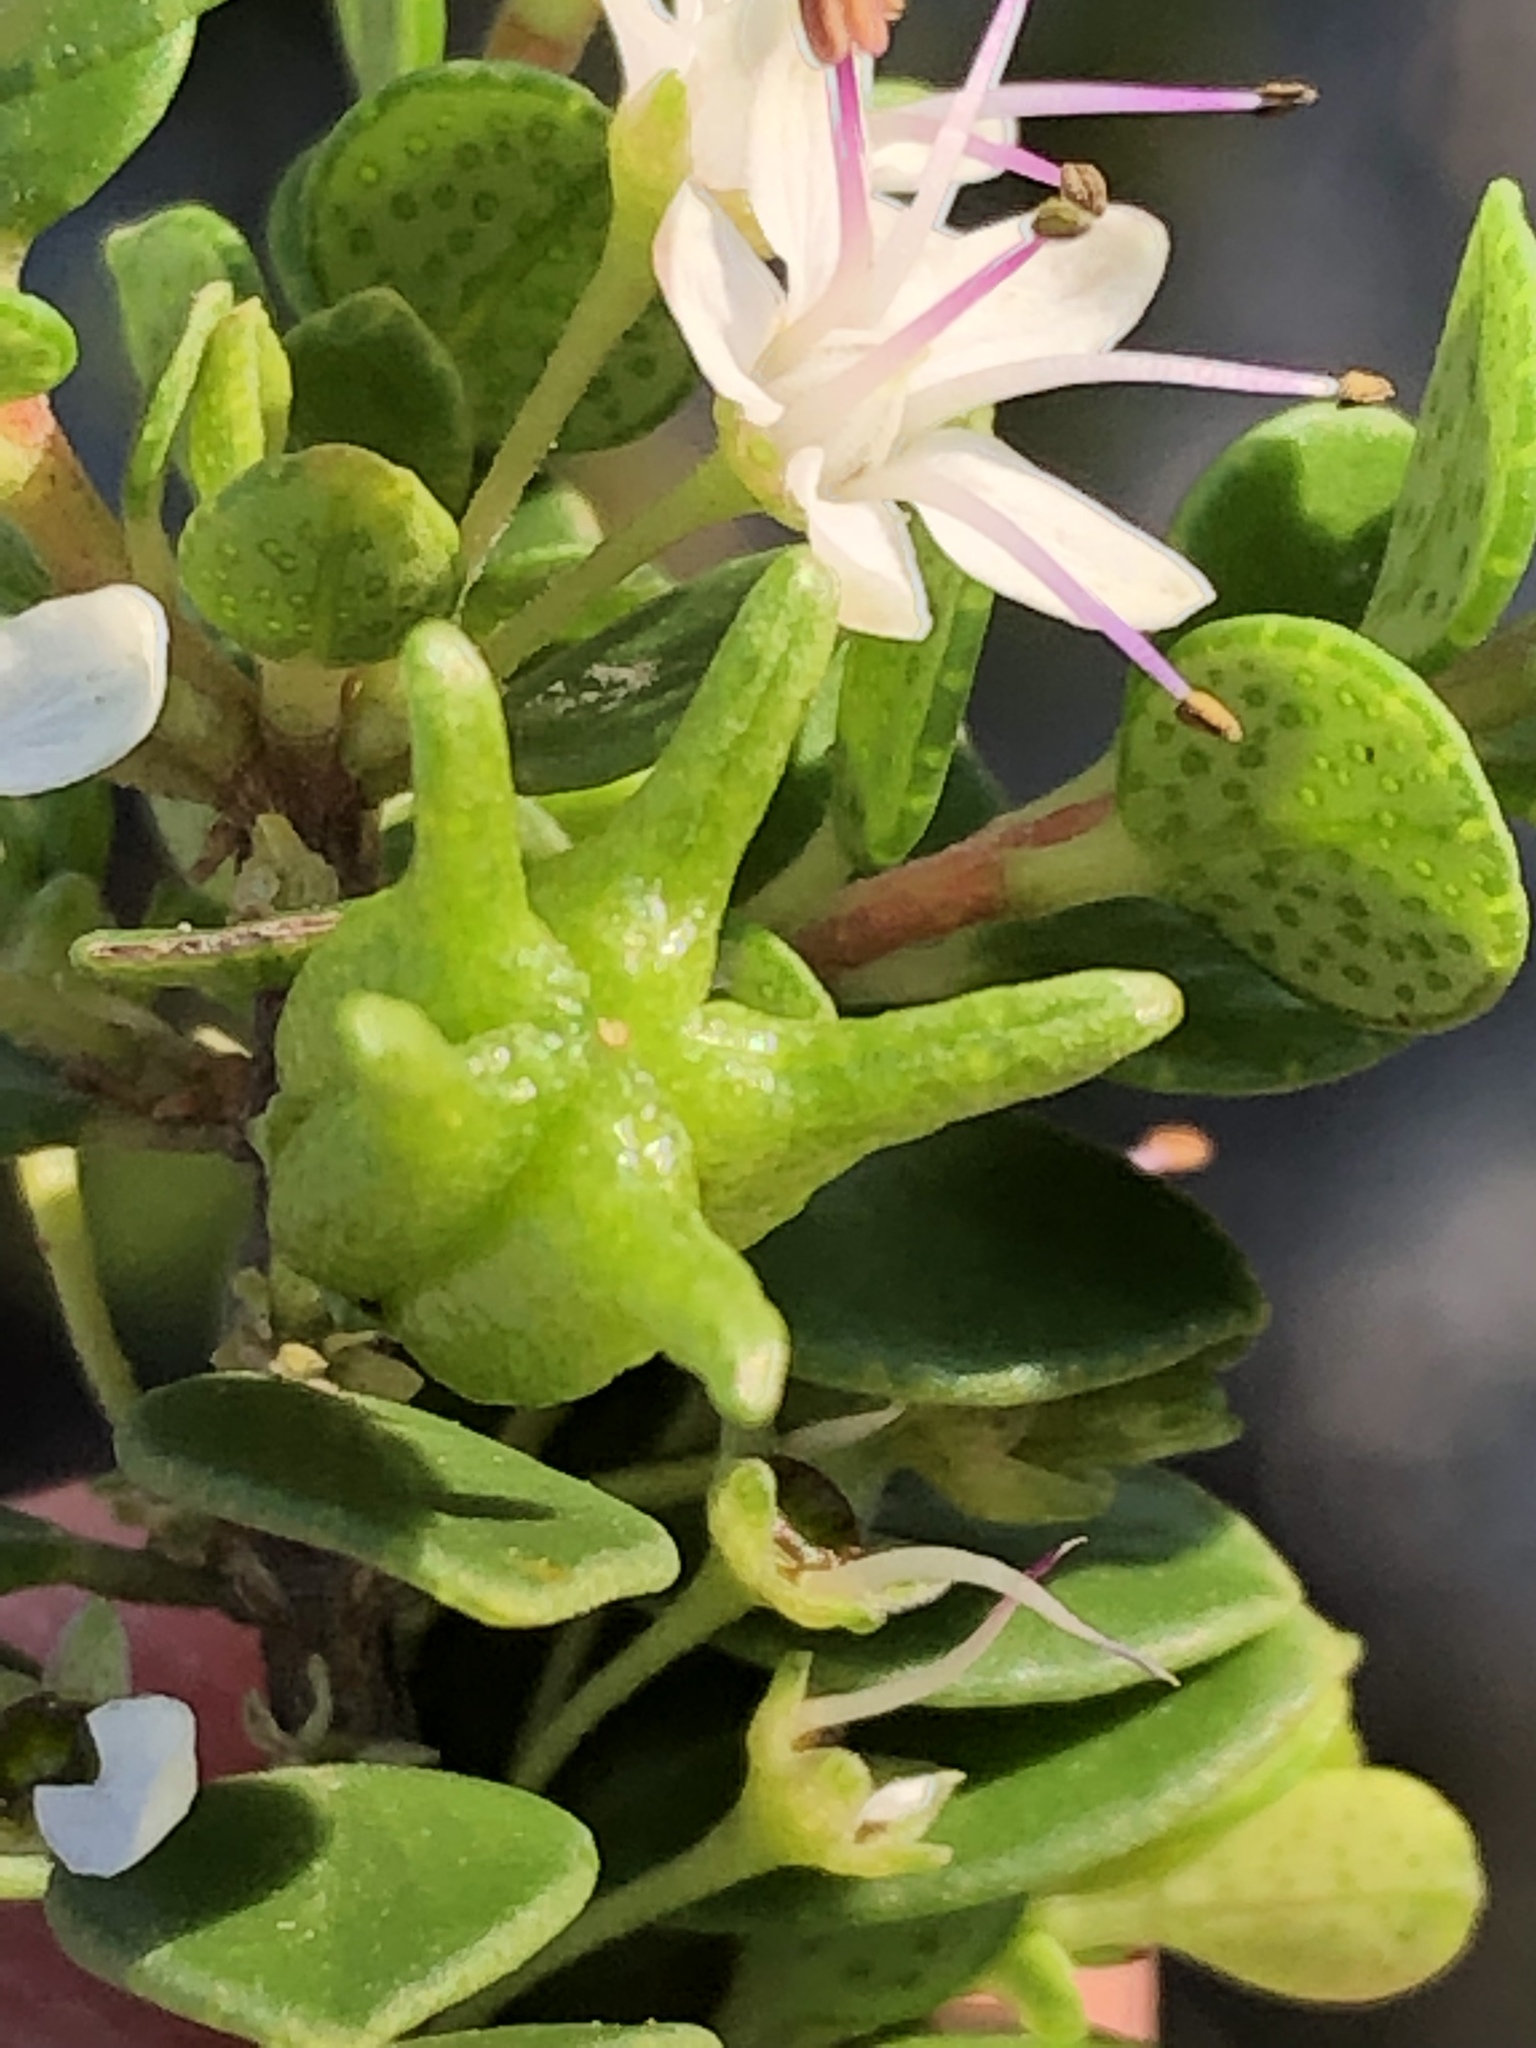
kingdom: Plantae
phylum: Tracheophyta
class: Magnoliopsida
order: Sapindales
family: Rutaceae
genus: Agathosma
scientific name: Agathosma ovata
